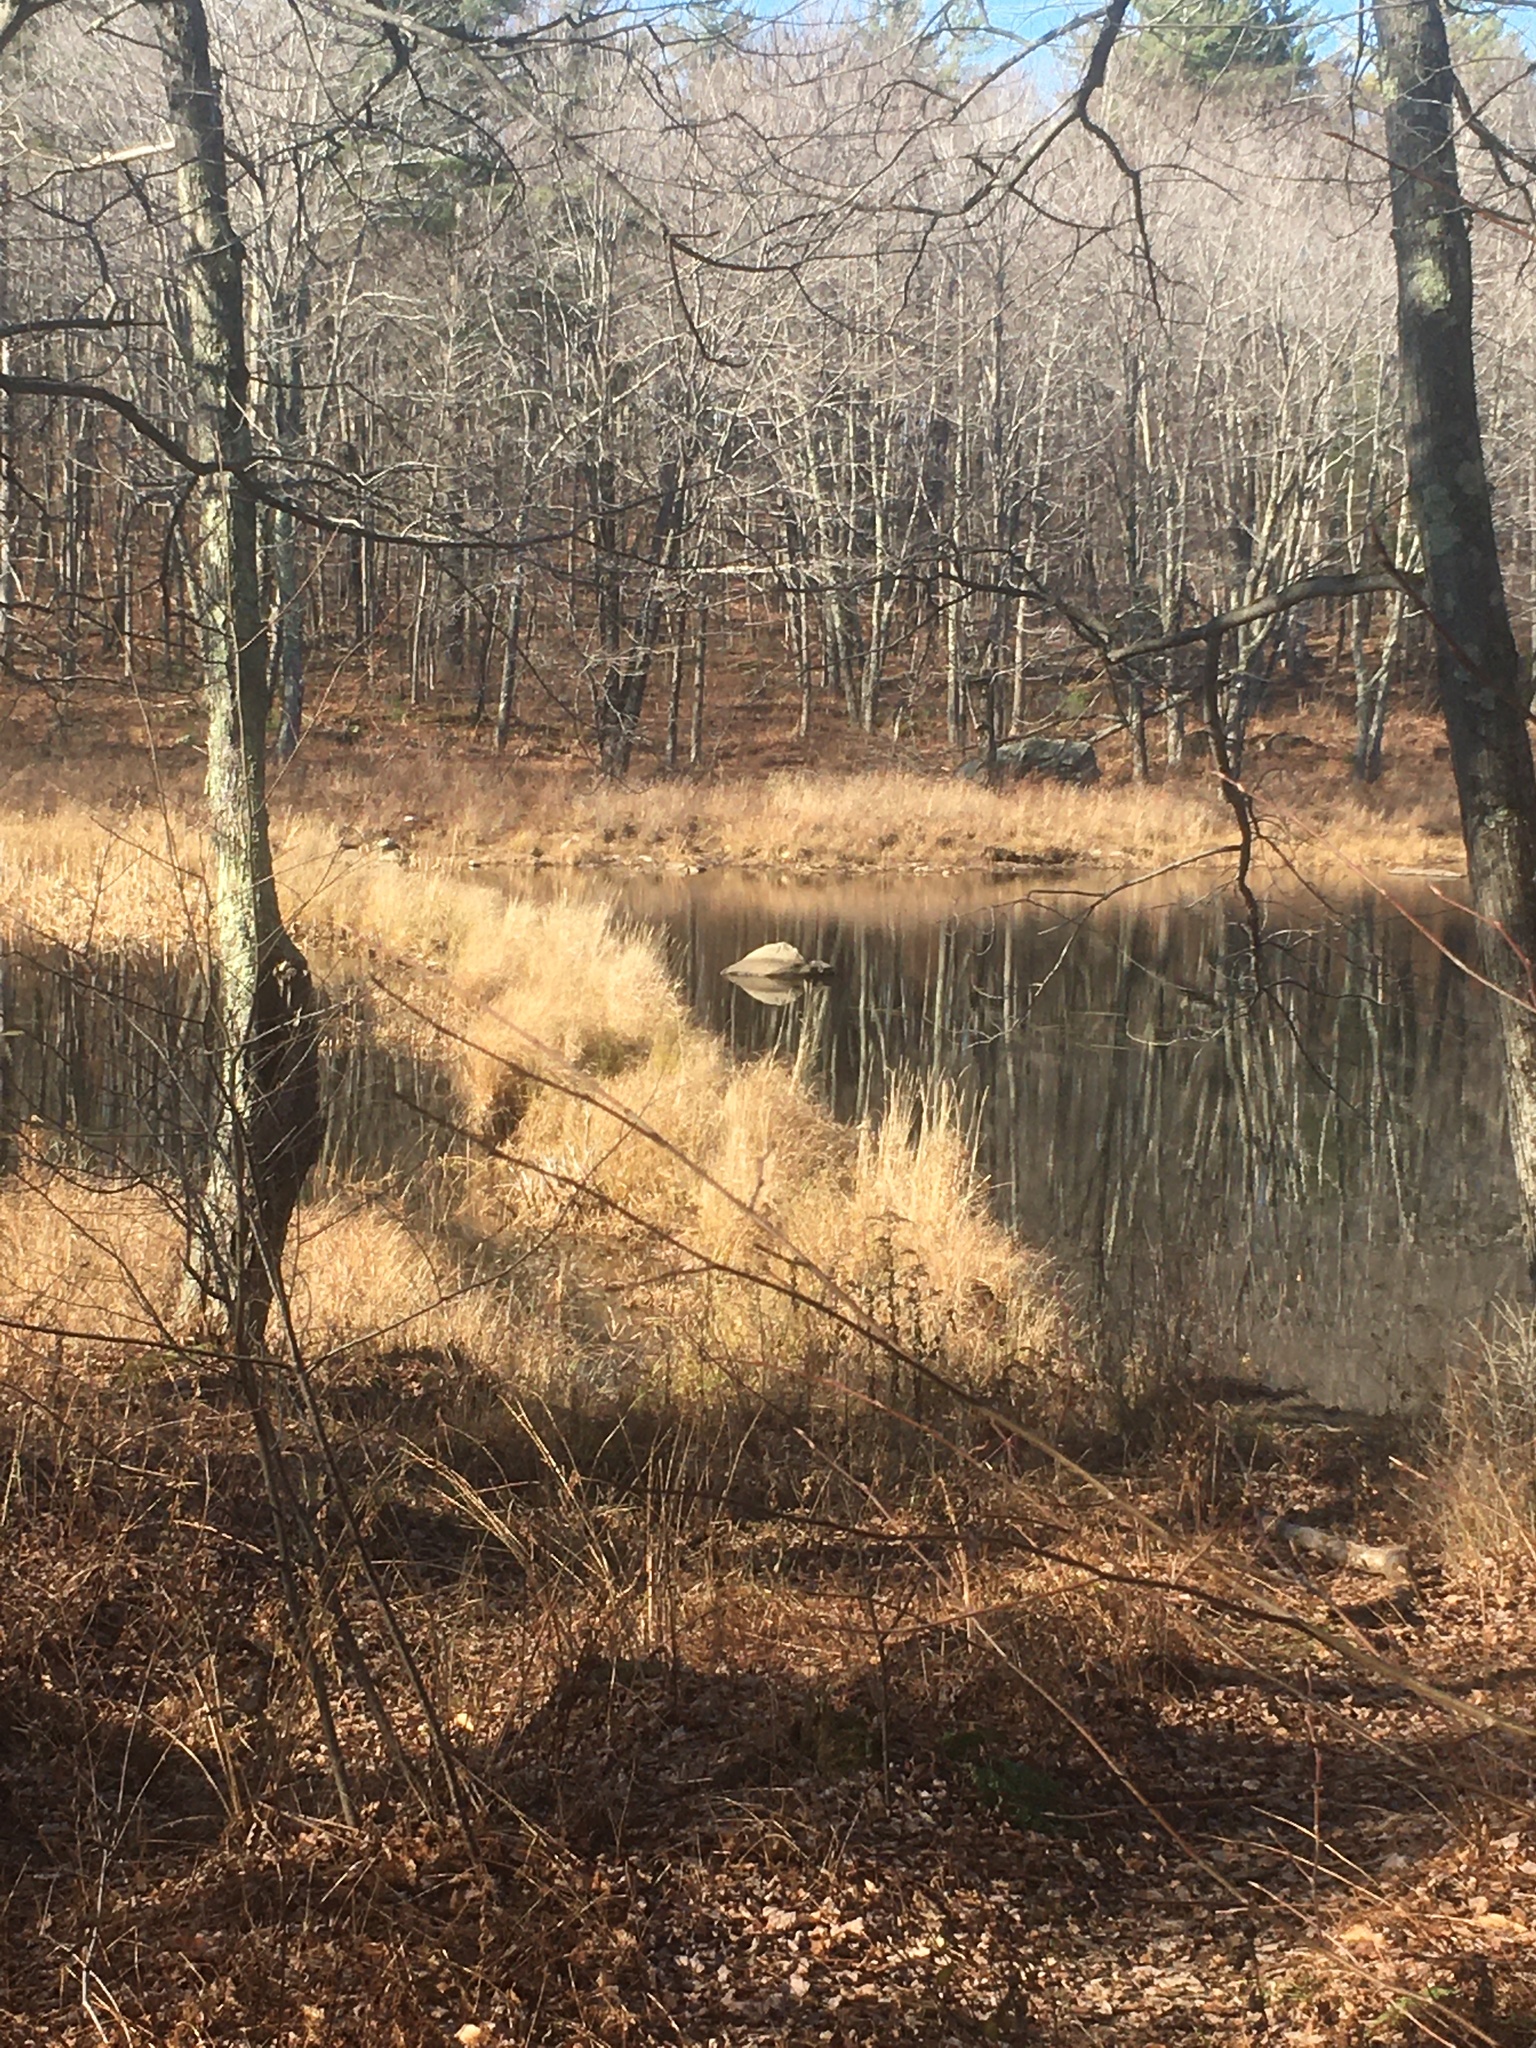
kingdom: Animalia
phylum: Chordata
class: Mammalia
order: Rodentia
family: Castoridae
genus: Castor
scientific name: Castor canadensis
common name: American beaver
